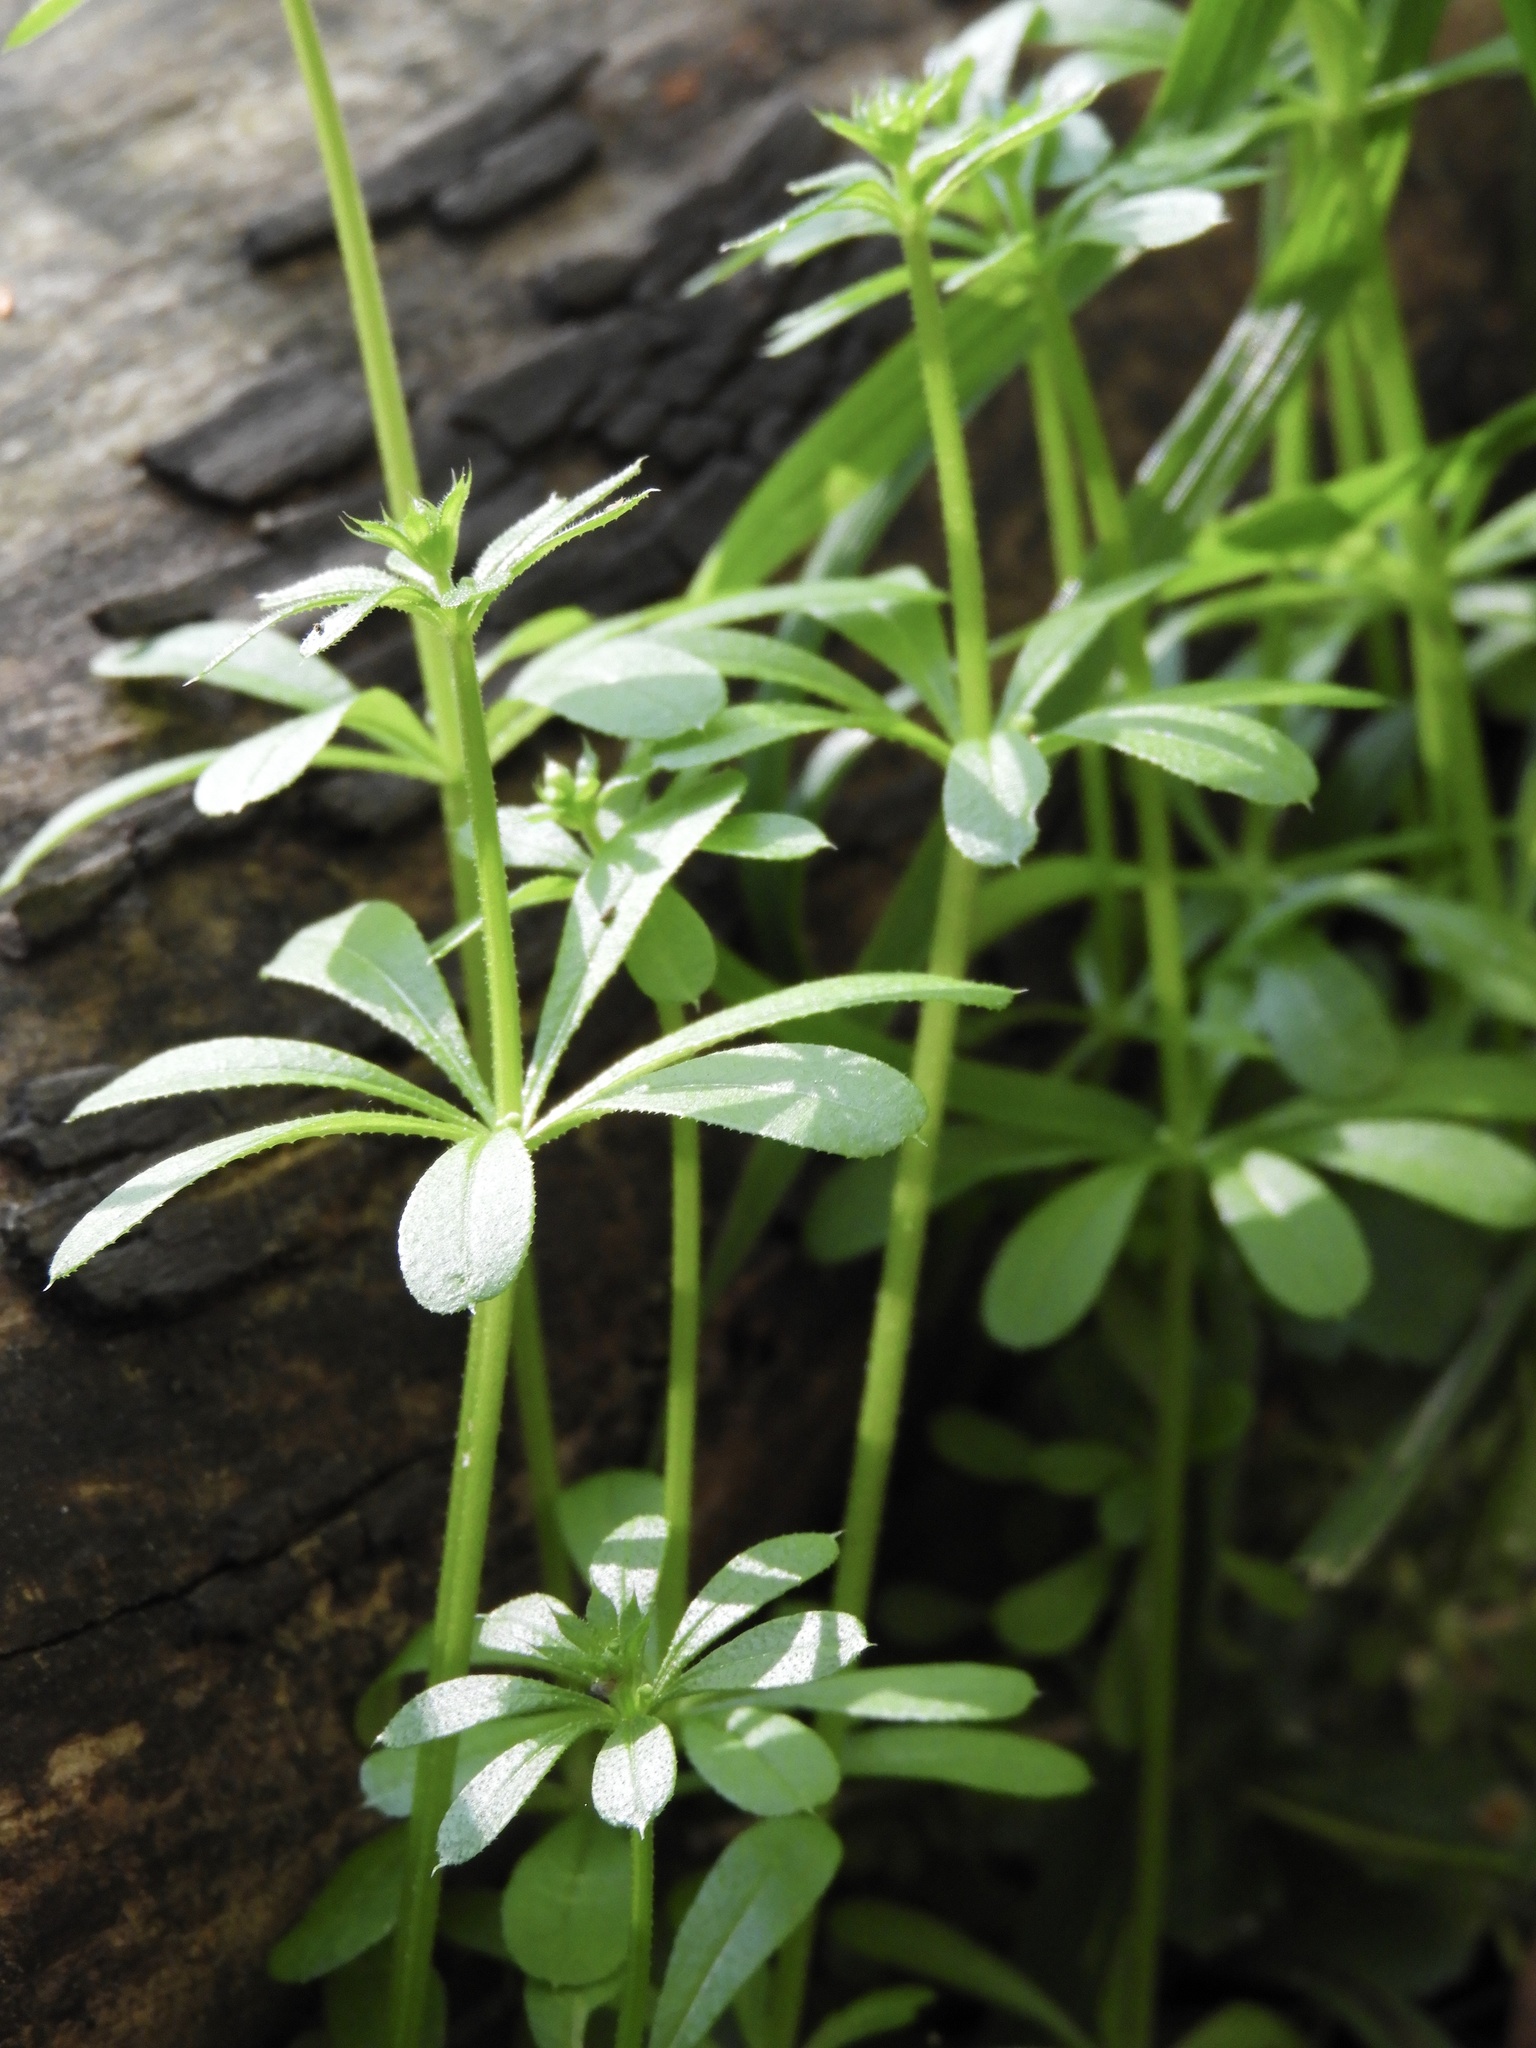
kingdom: Plantae
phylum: Tracheophyta
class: Magnoliopsida
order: Gentianales
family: Rubiaceae
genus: Galium
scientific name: Galium aparine
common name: Cleavers
